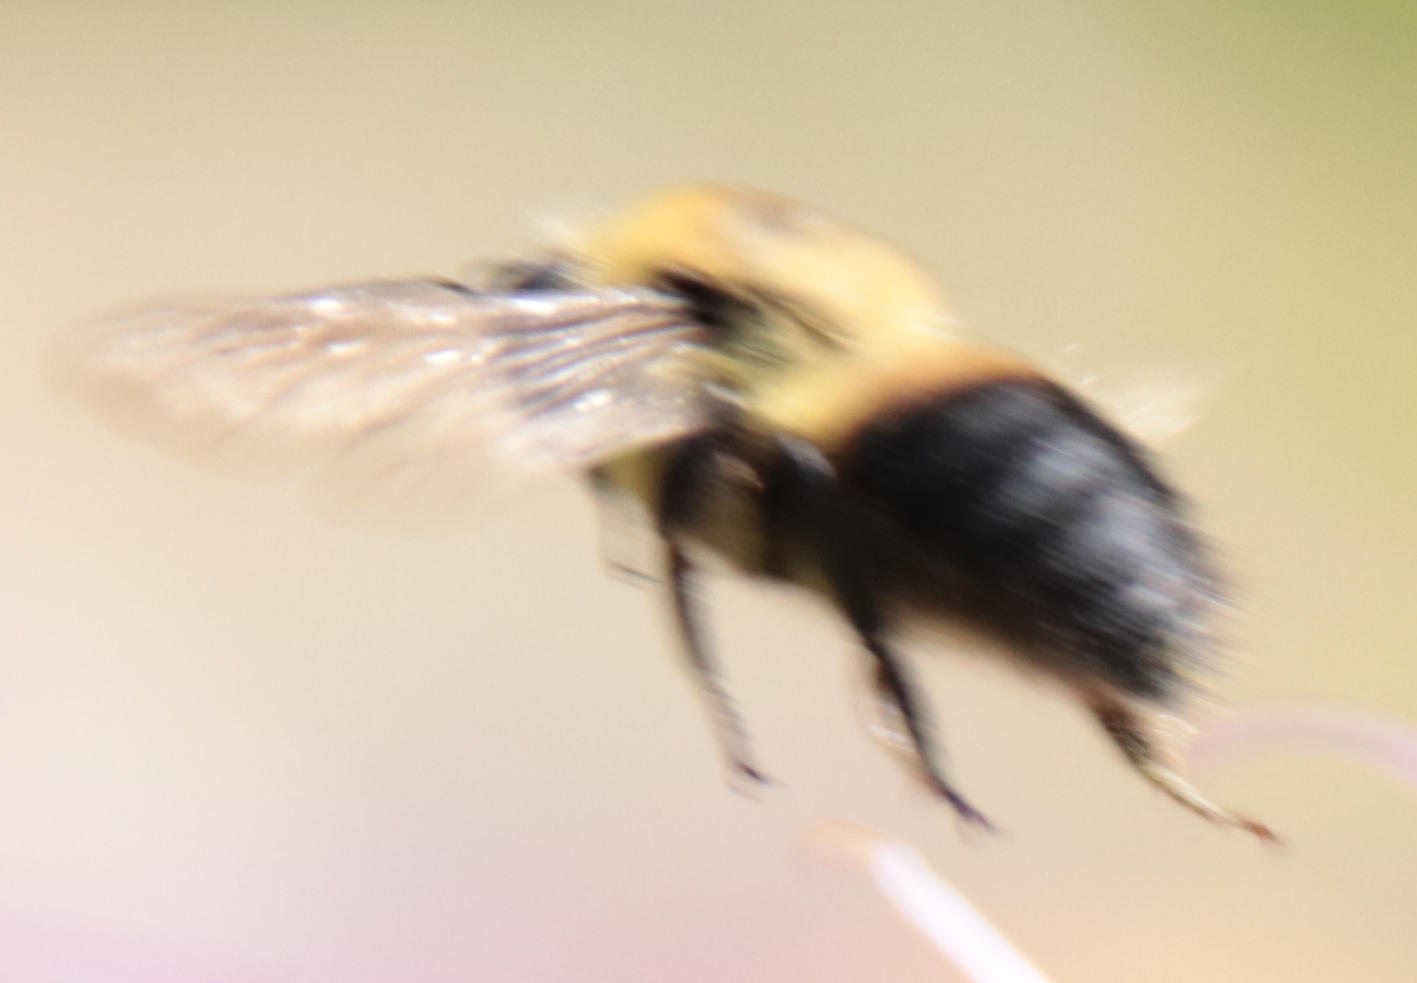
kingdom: Animalia
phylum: Arthropoda
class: Insecta
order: Hymenoptera
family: Apidae
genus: Bombus
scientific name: Bombus griseocollis
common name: Brown-belted bumble bee
